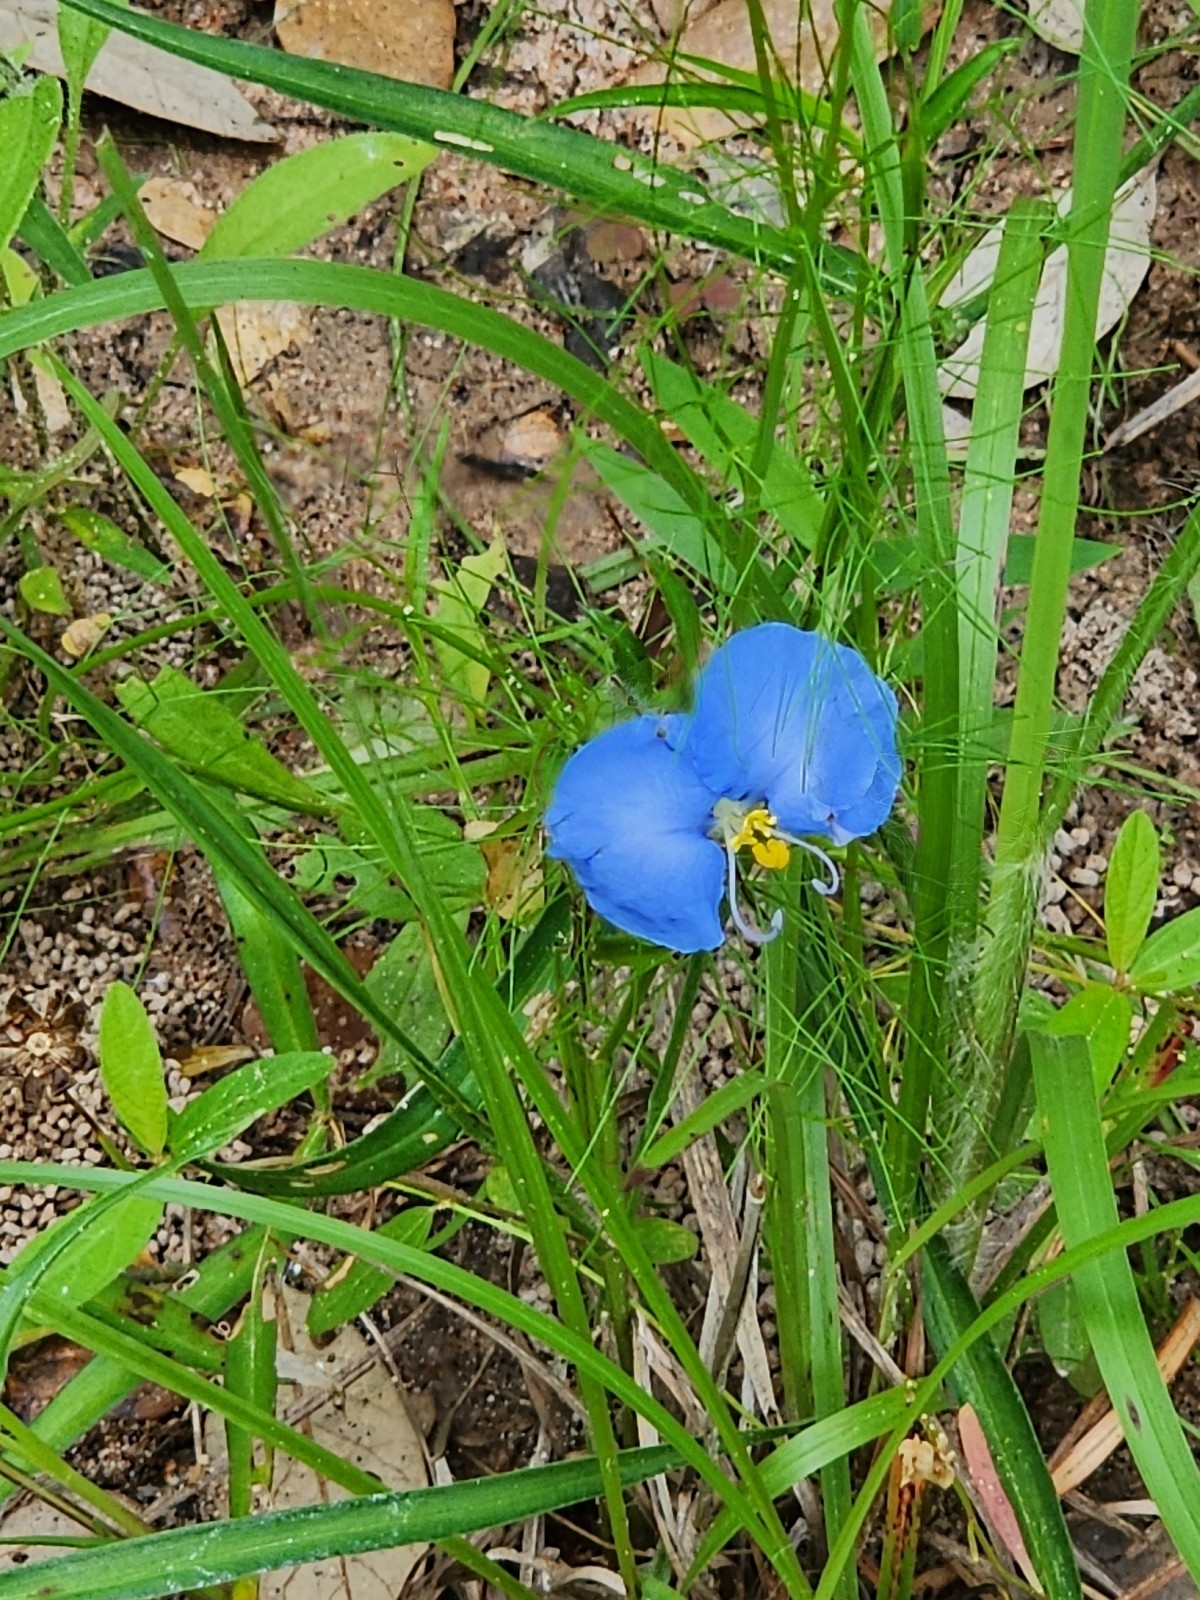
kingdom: Plantae
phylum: Tracheophyta
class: Liliopsida
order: Commelinales
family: Commelinaceae
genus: Commelina
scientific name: Commelina erecta
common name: Blousel blommetjie
